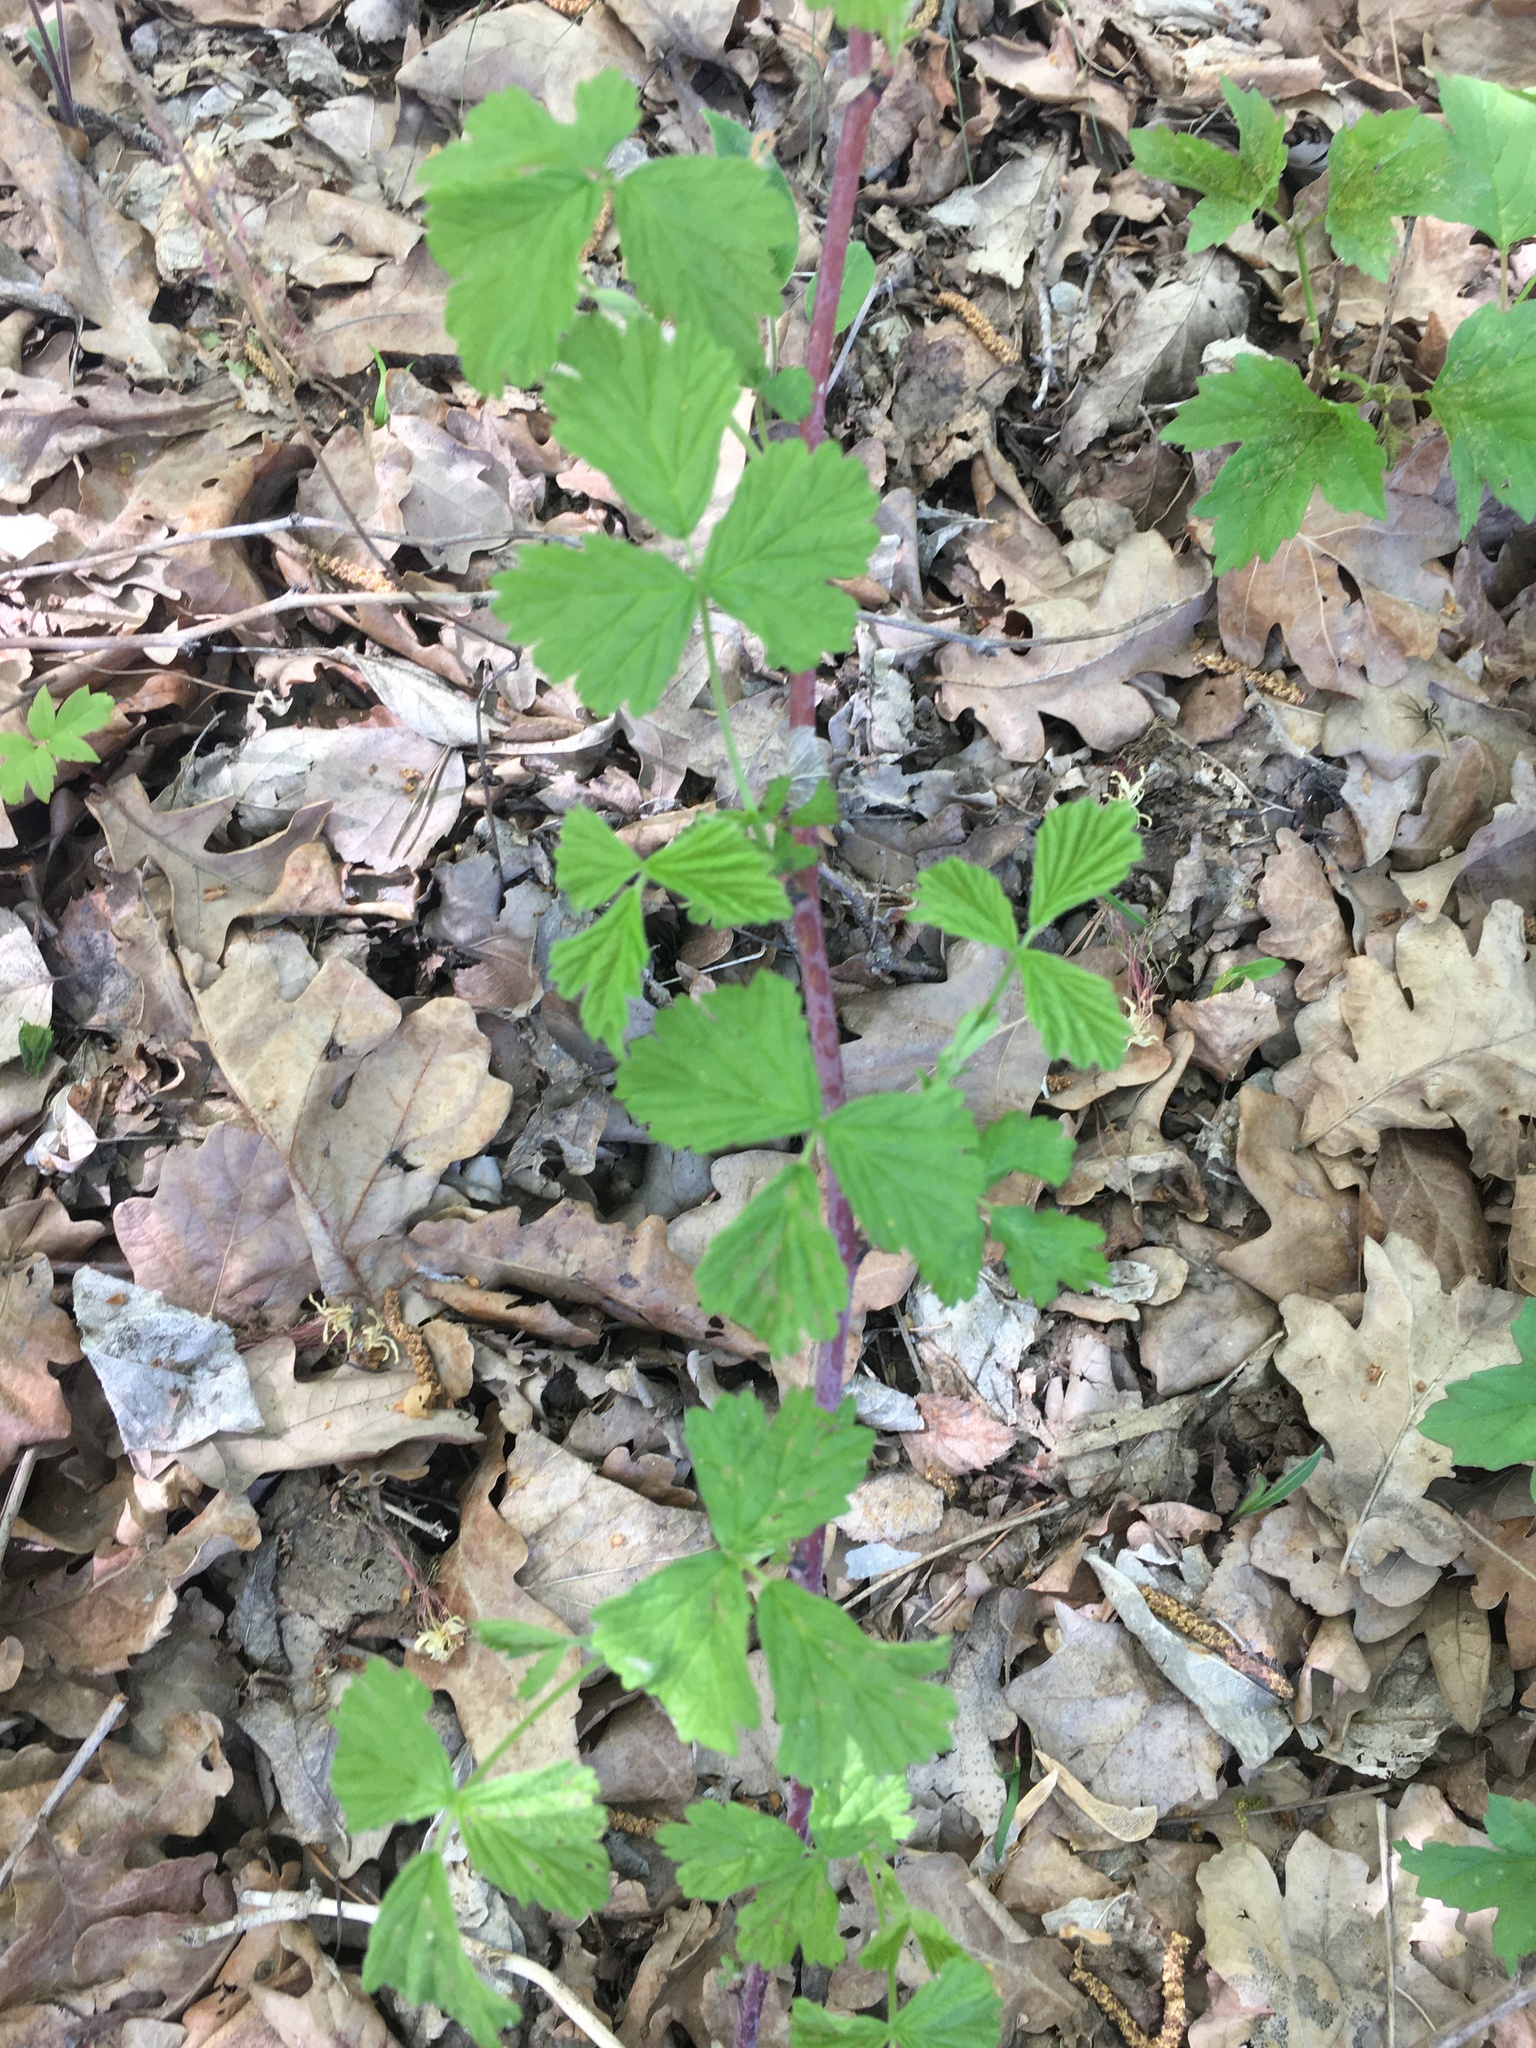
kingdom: Plantae
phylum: Tracheophyta
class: Magnoliopsida
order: Rosales
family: Rosaceae
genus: Rubus
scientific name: Rubus caesius
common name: Dewberry
